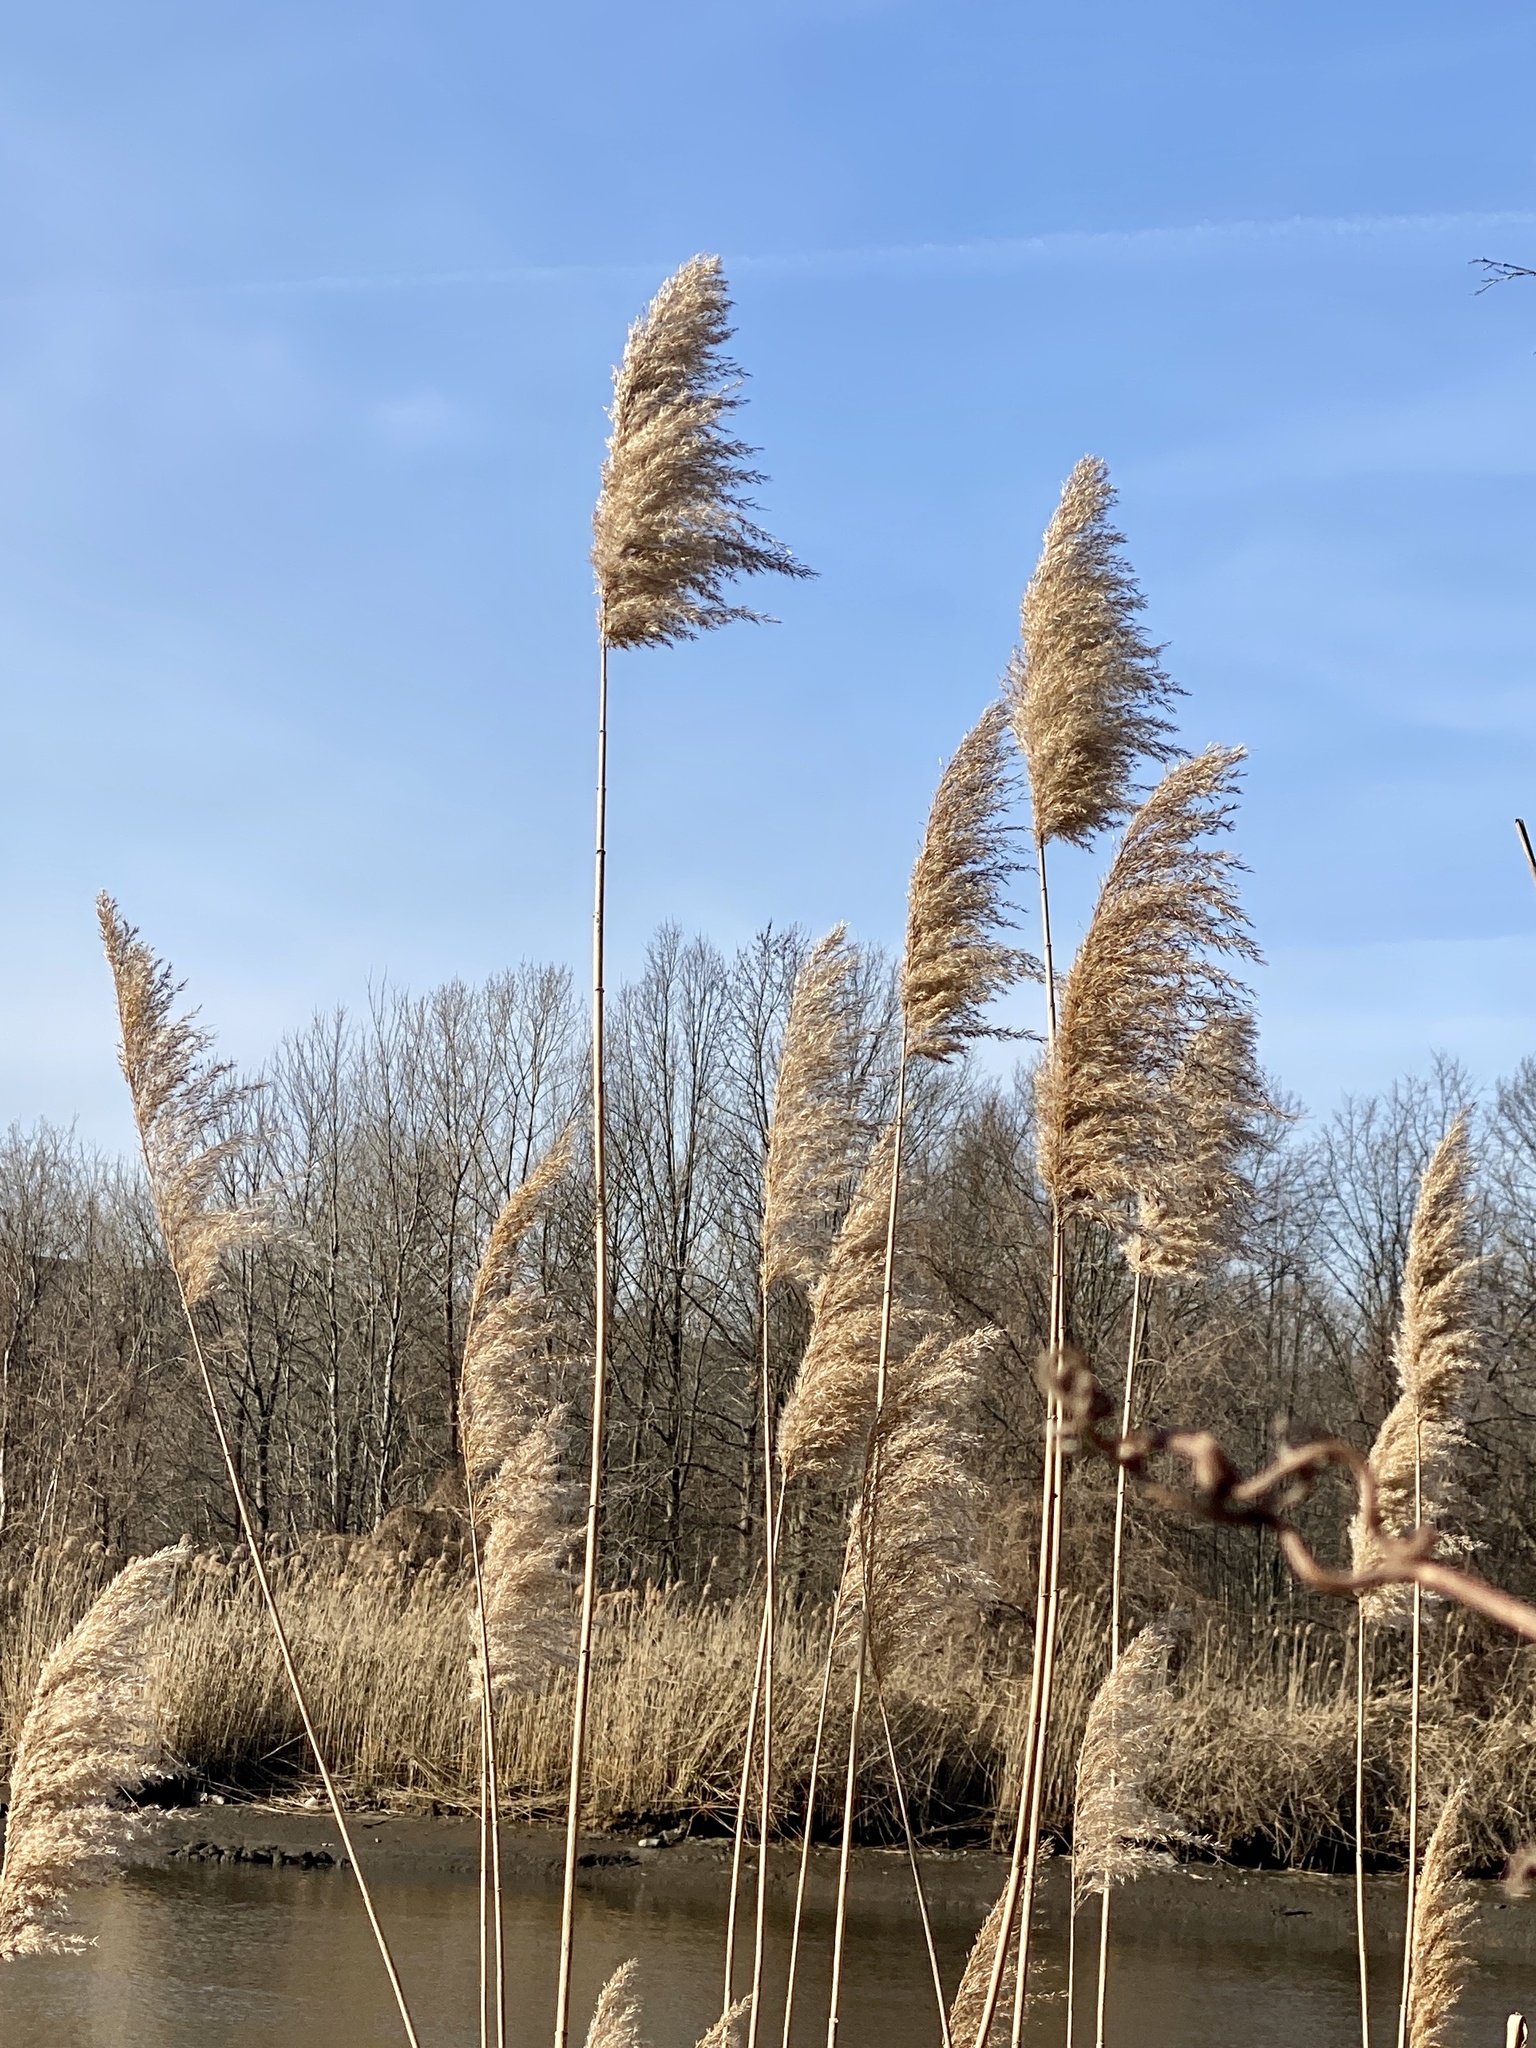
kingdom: Plantae
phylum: Tracheophyta
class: Liliopsida
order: Poales
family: Poaceae
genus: Phragmites
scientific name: Phragmites australis
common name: Common reed
